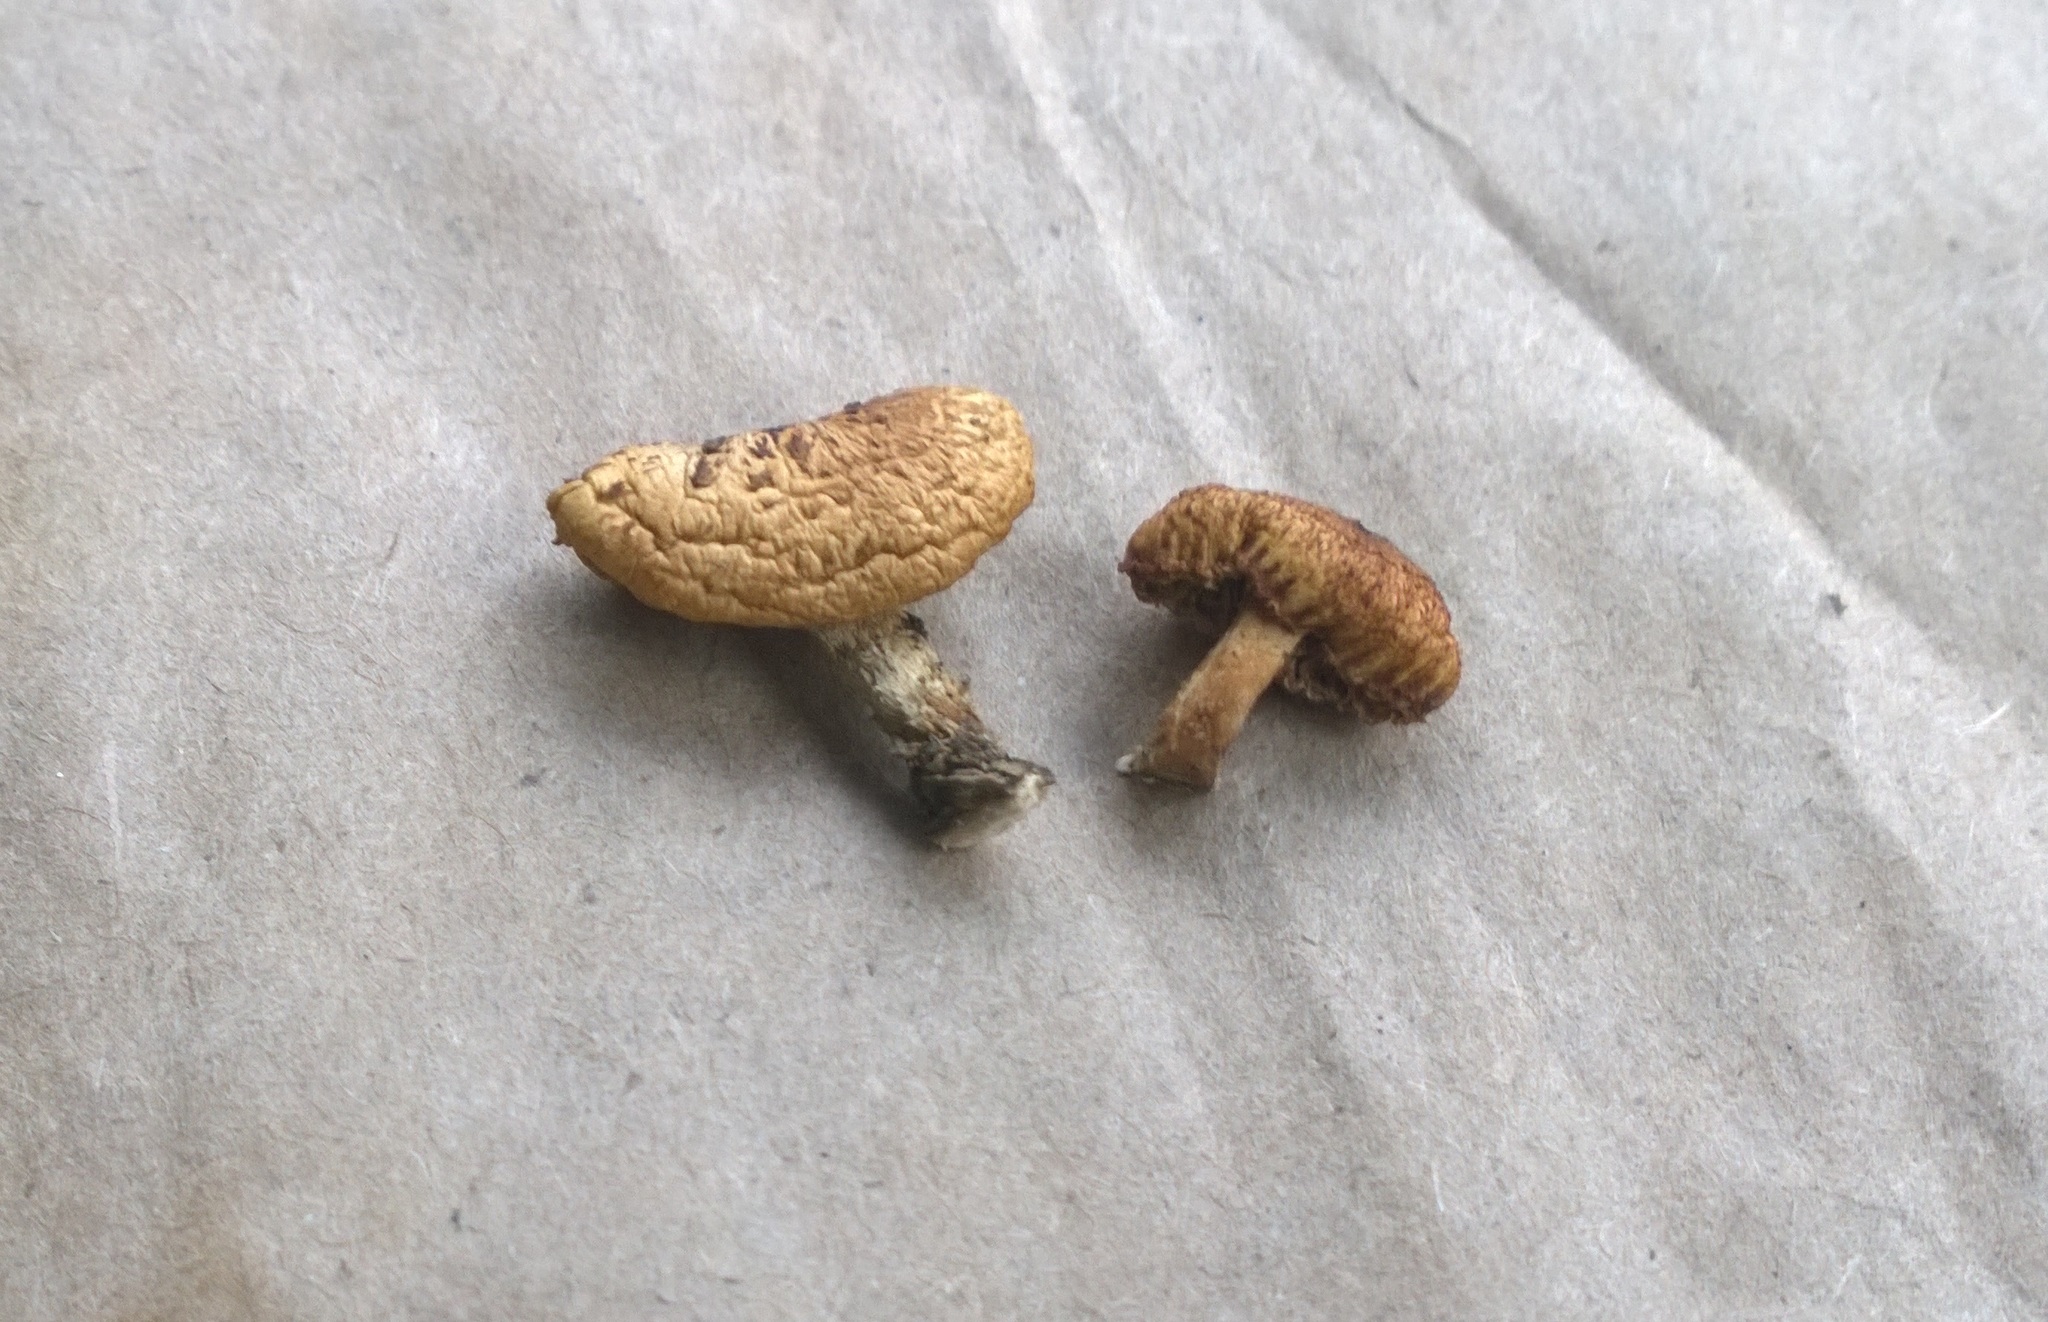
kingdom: Fungi
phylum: Basidiomycota
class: Agaricomycetes
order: Gloeophyllales
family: Gloeophyllaceae
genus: Heliocybe
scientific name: Heliocybe sulcata
